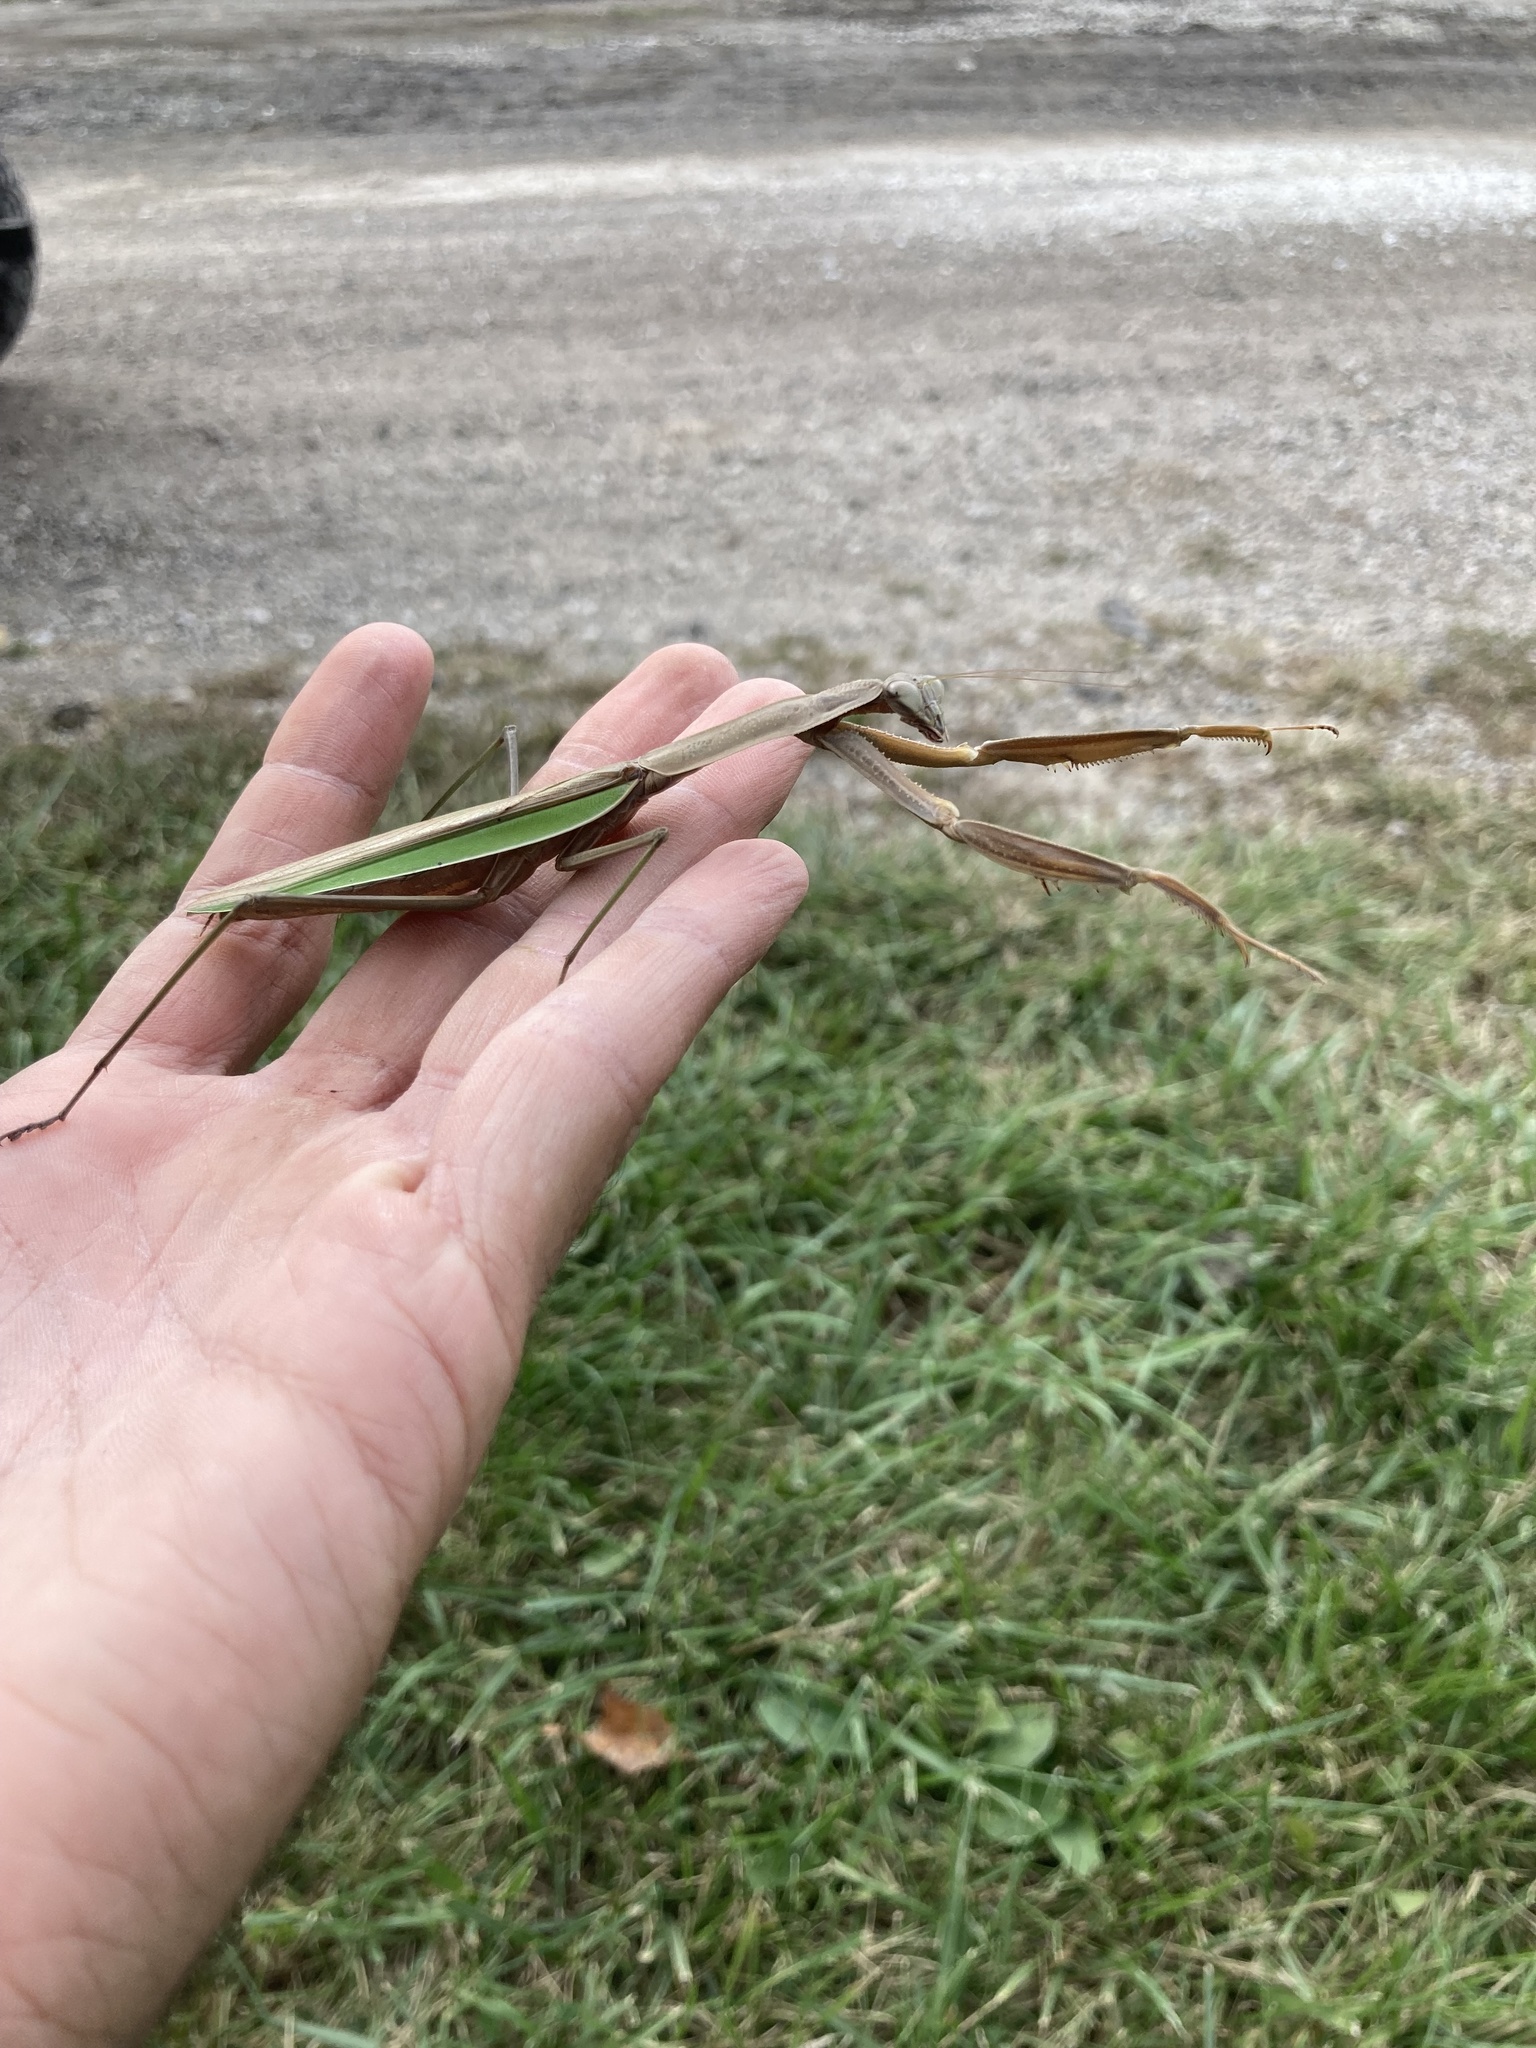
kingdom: Animalia
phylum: Arthropoda
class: Insecta
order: Mantodea
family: Mantidae
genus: Tenodera
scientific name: Tenodera sinensis
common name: Chinese mantis
